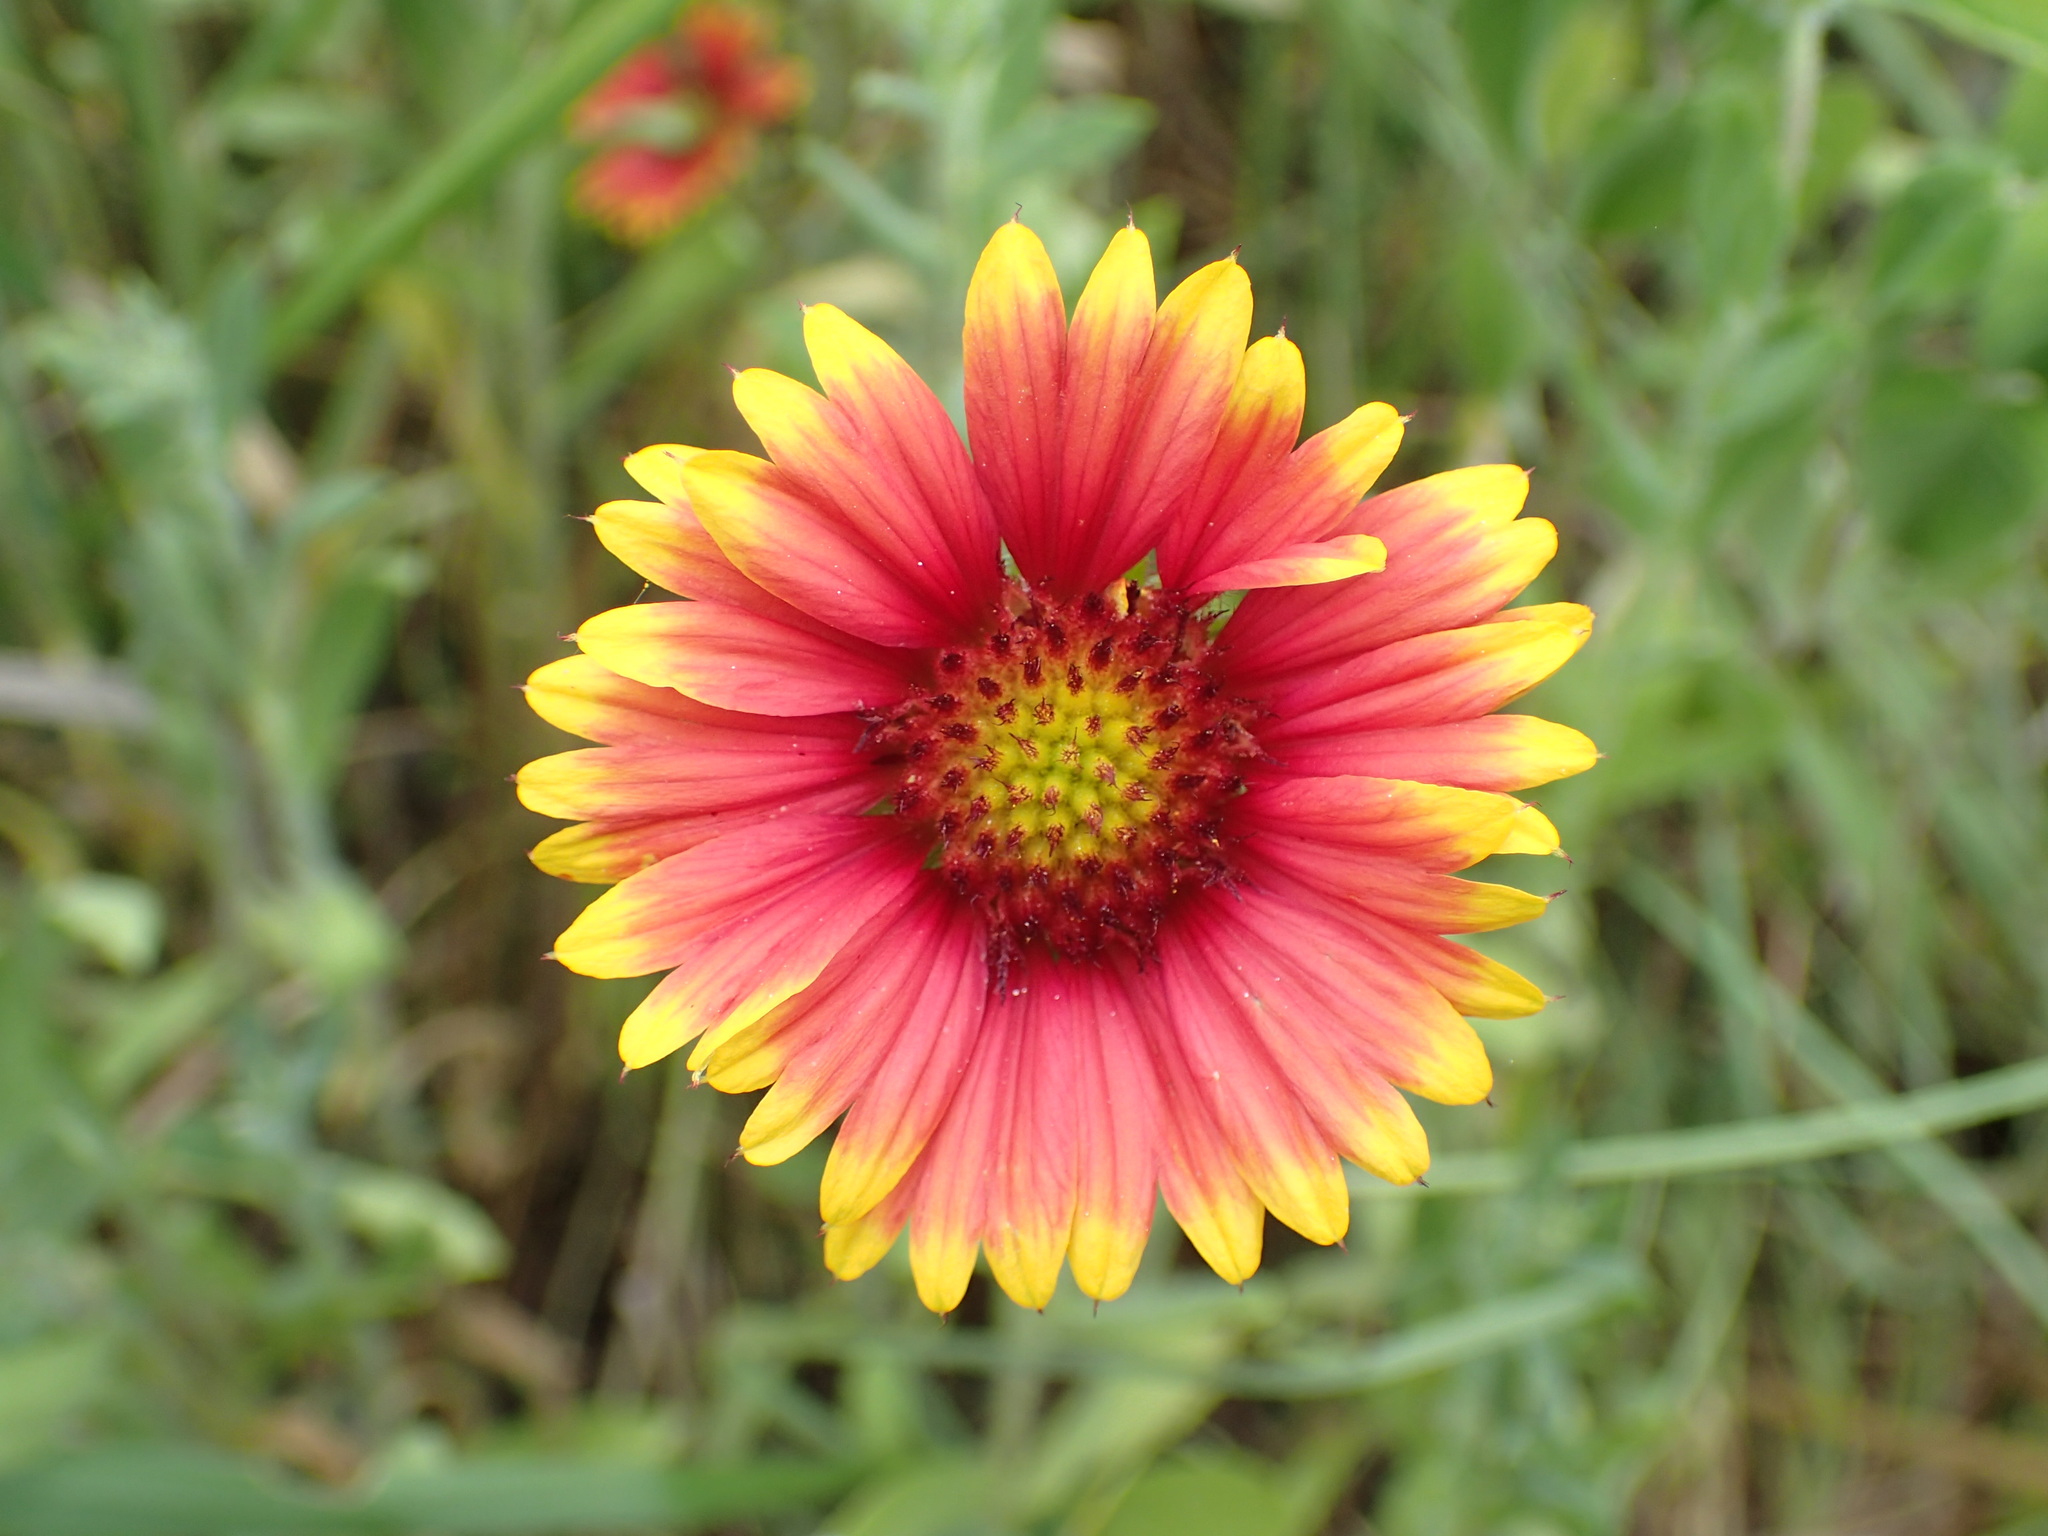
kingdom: Plantae
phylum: Tracheophyta
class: Magnoliopsida
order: Asterales
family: Asteraceae
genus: Gaillardia
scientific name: Gaillardia pulchella
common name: Firewheel
